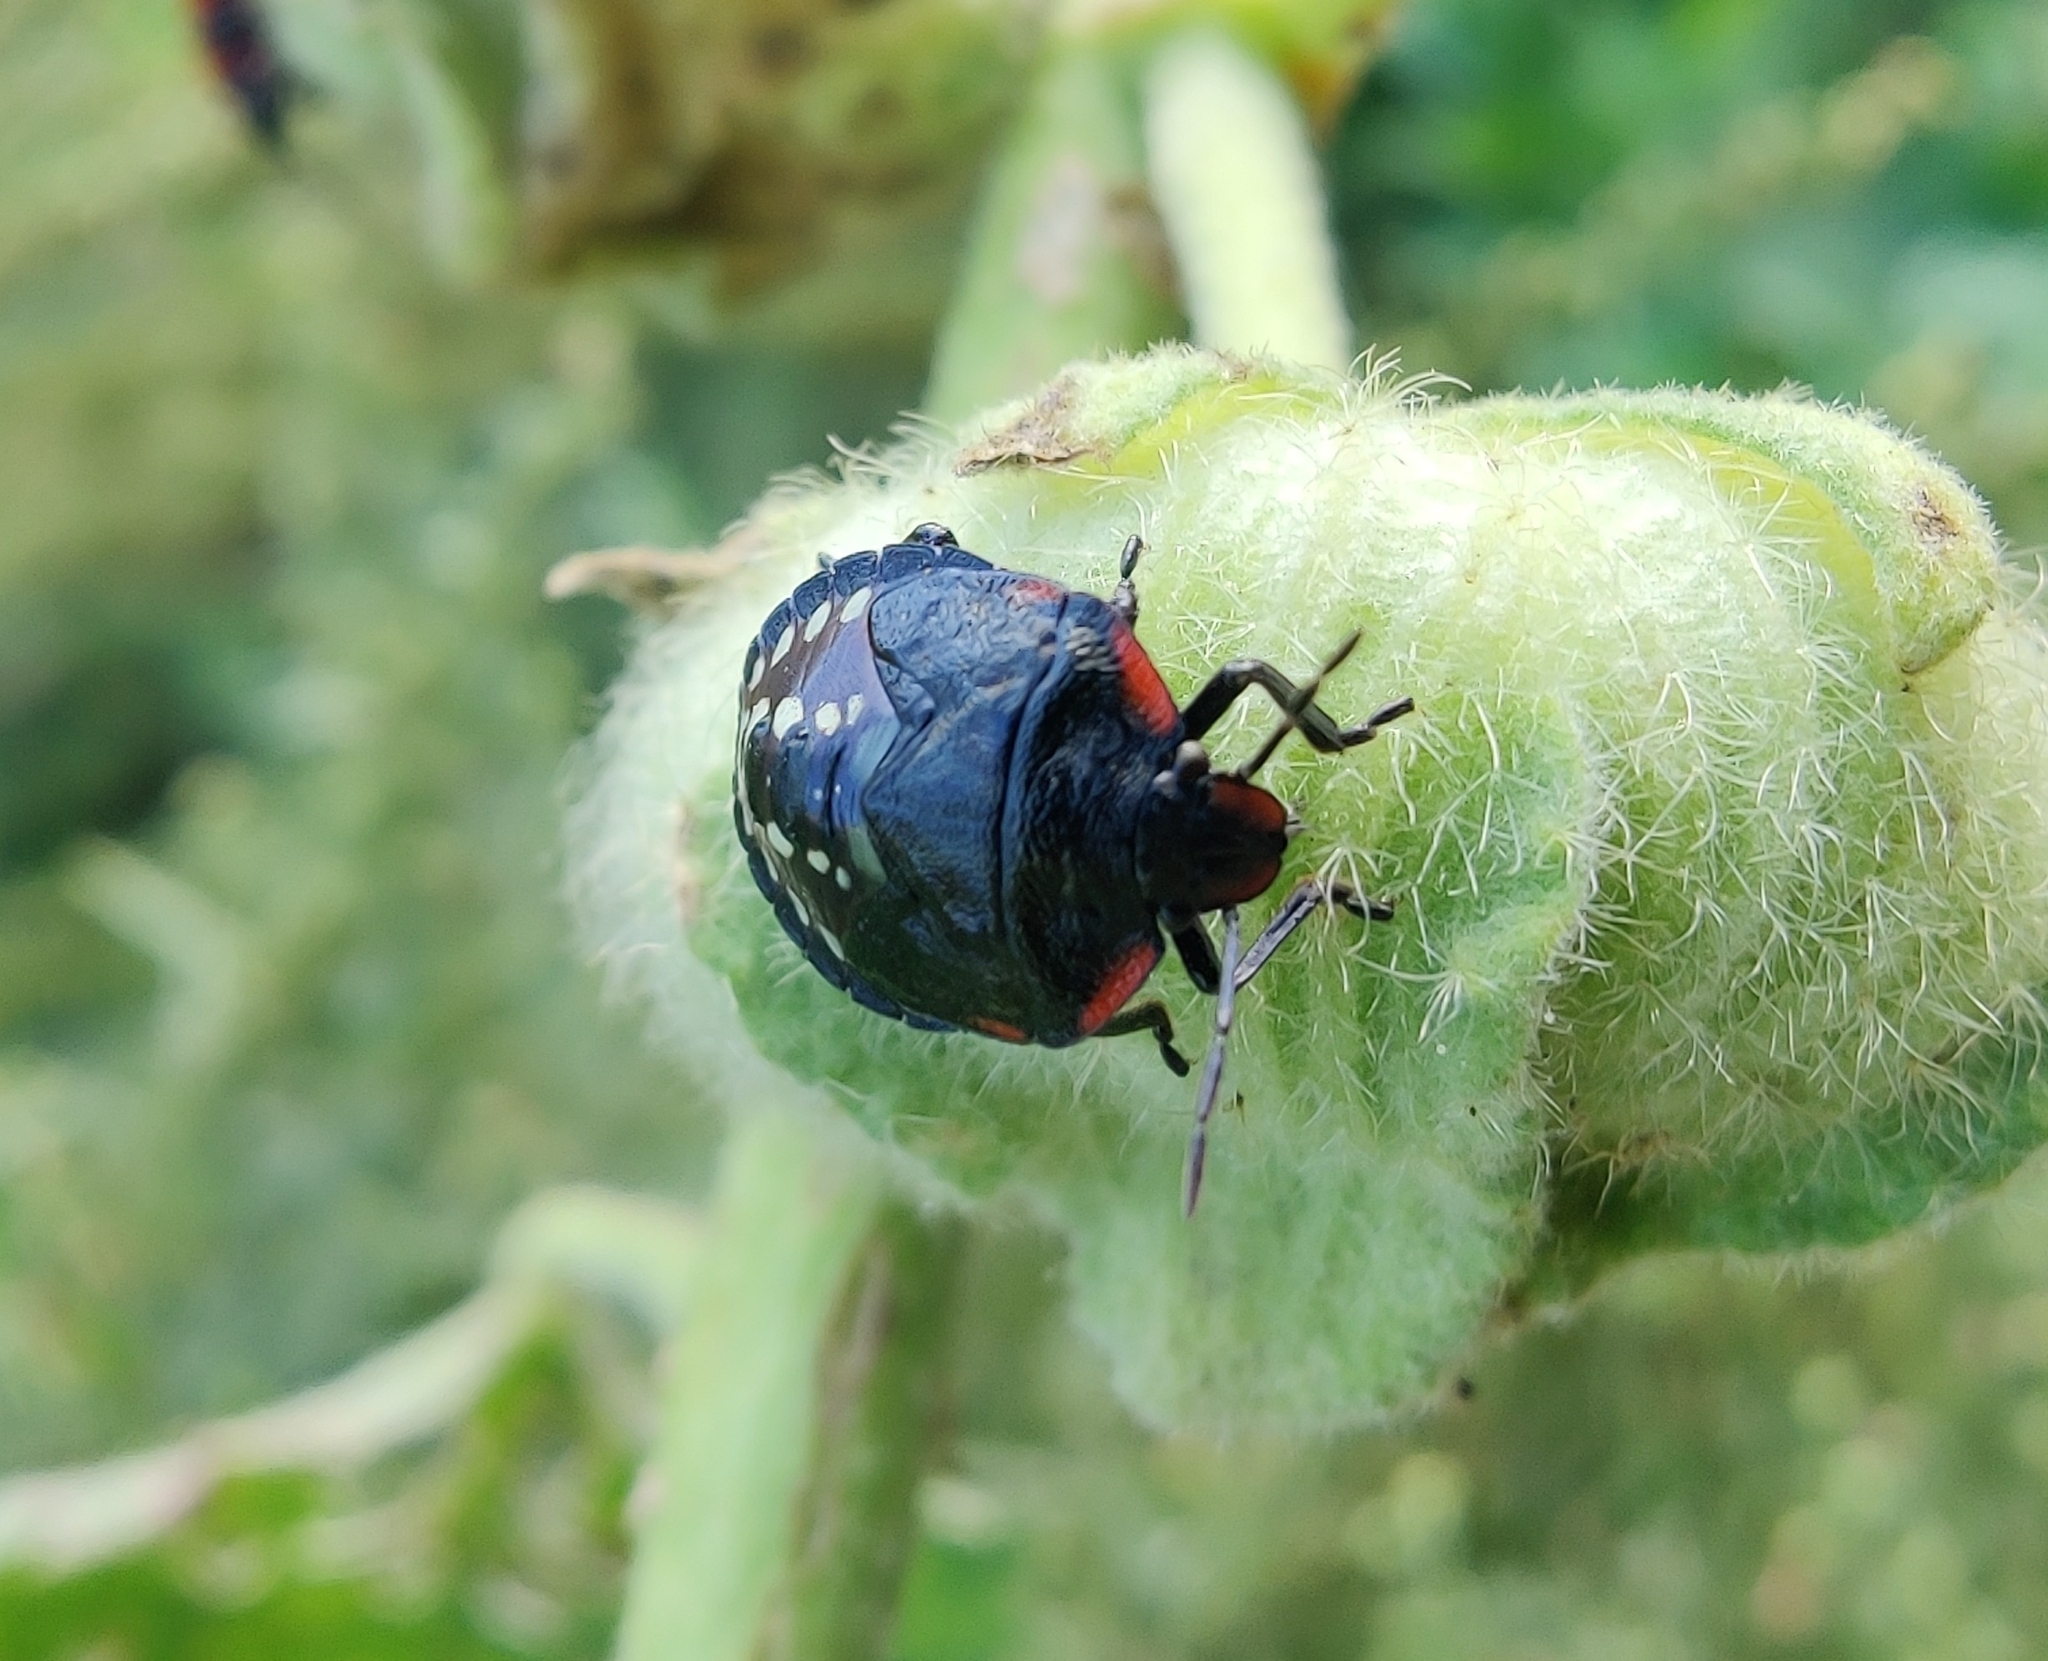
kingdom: Animalia
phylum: Arthropoda
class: Insecta
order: Hemiptera
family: Pentatomidae
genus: Nezara
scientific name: Nezara viridula
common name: Southern green stink bug
